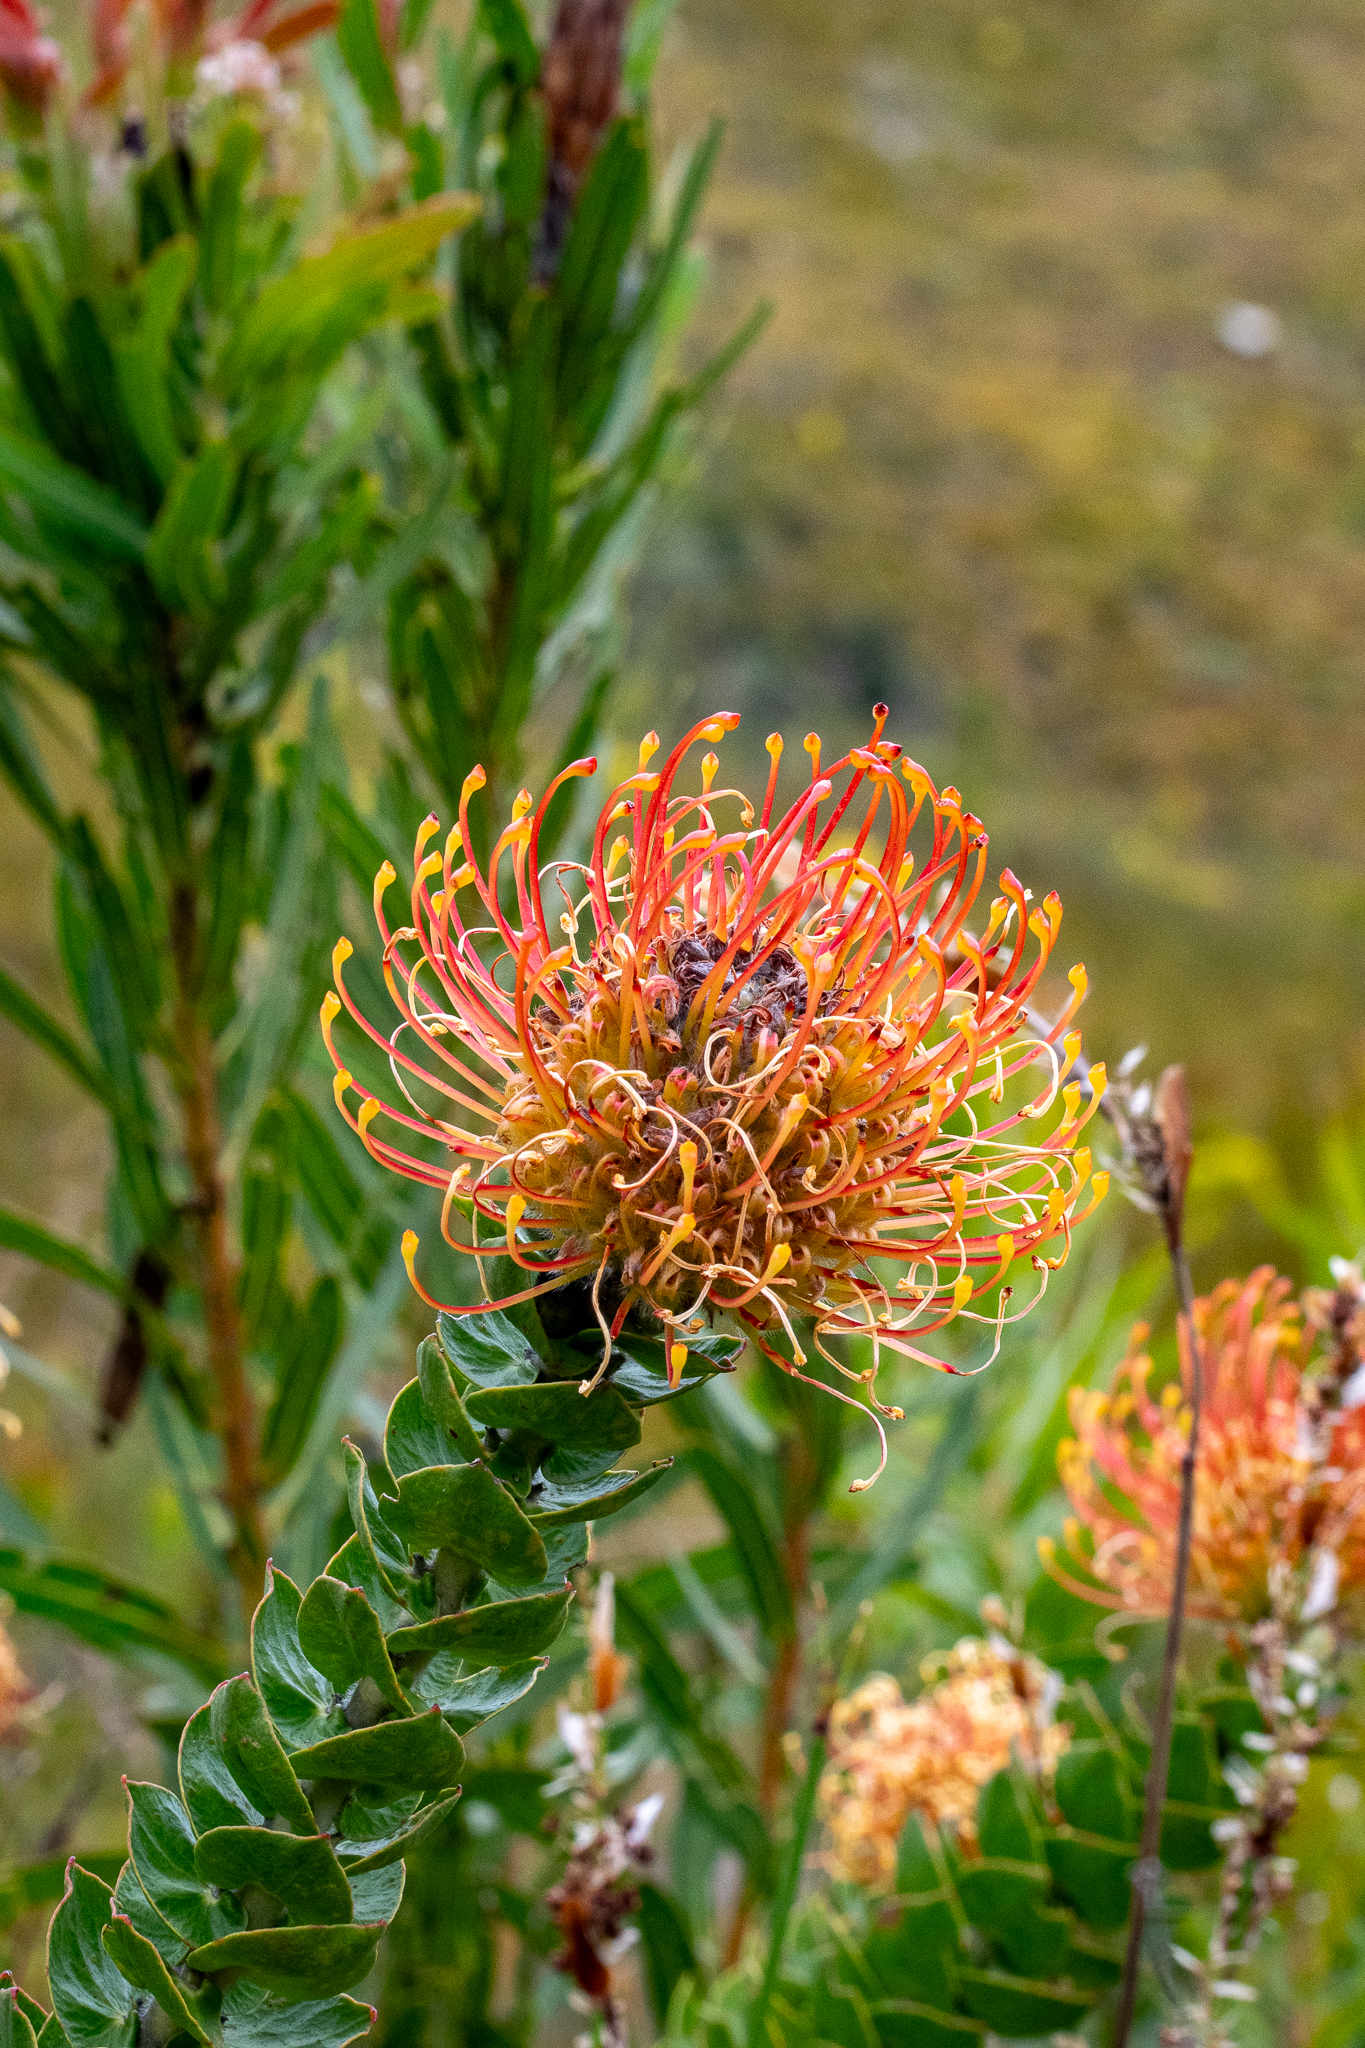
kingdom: Plantae
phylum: Tracheophyta
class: Magnoliopsida
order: Proteales
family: Proteaceae
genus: Leucospermum
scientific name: Leucospermum cordifolium
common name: Red pincushion-protea
